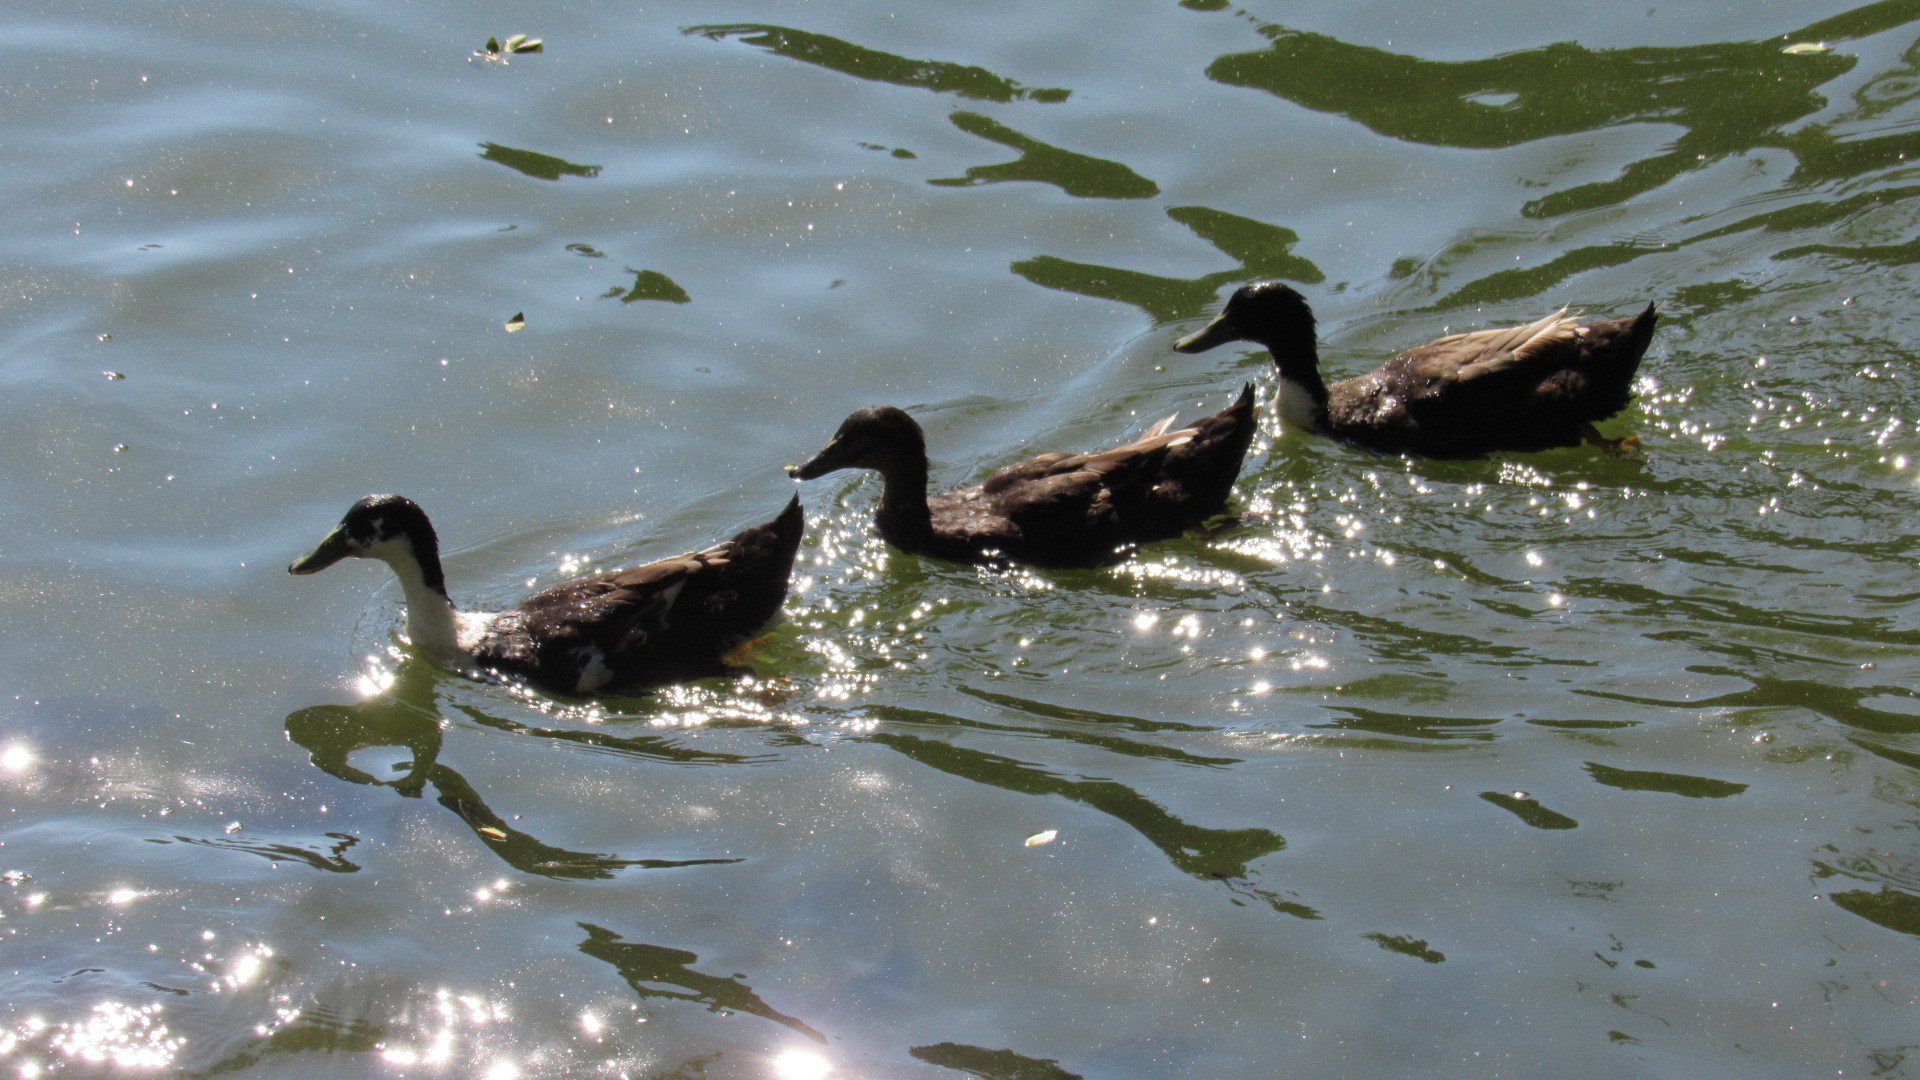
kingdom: Animalia
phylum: Chordata
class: Aves
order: Anseriformes
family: Anatidae
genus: Anas
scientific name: Anas platyrhynchos
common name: Mallard
